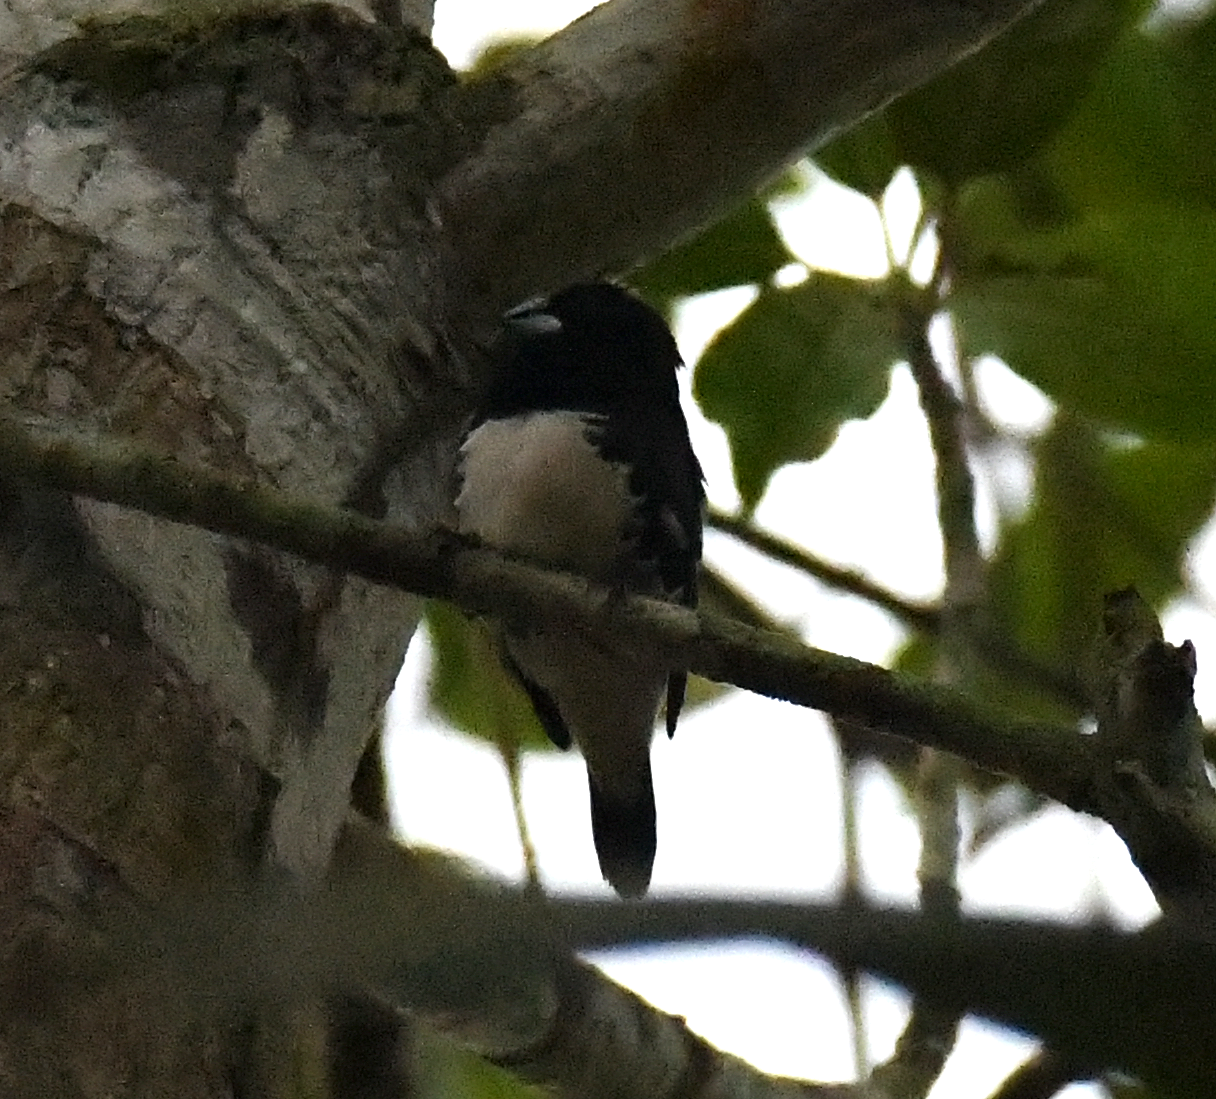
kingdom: Animalia
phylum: Chordata
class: Aves
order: Passeriformes
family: Estrildidae
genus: Lonchura
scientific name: Lonchura bicolor
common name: Black-and-white mannikin
